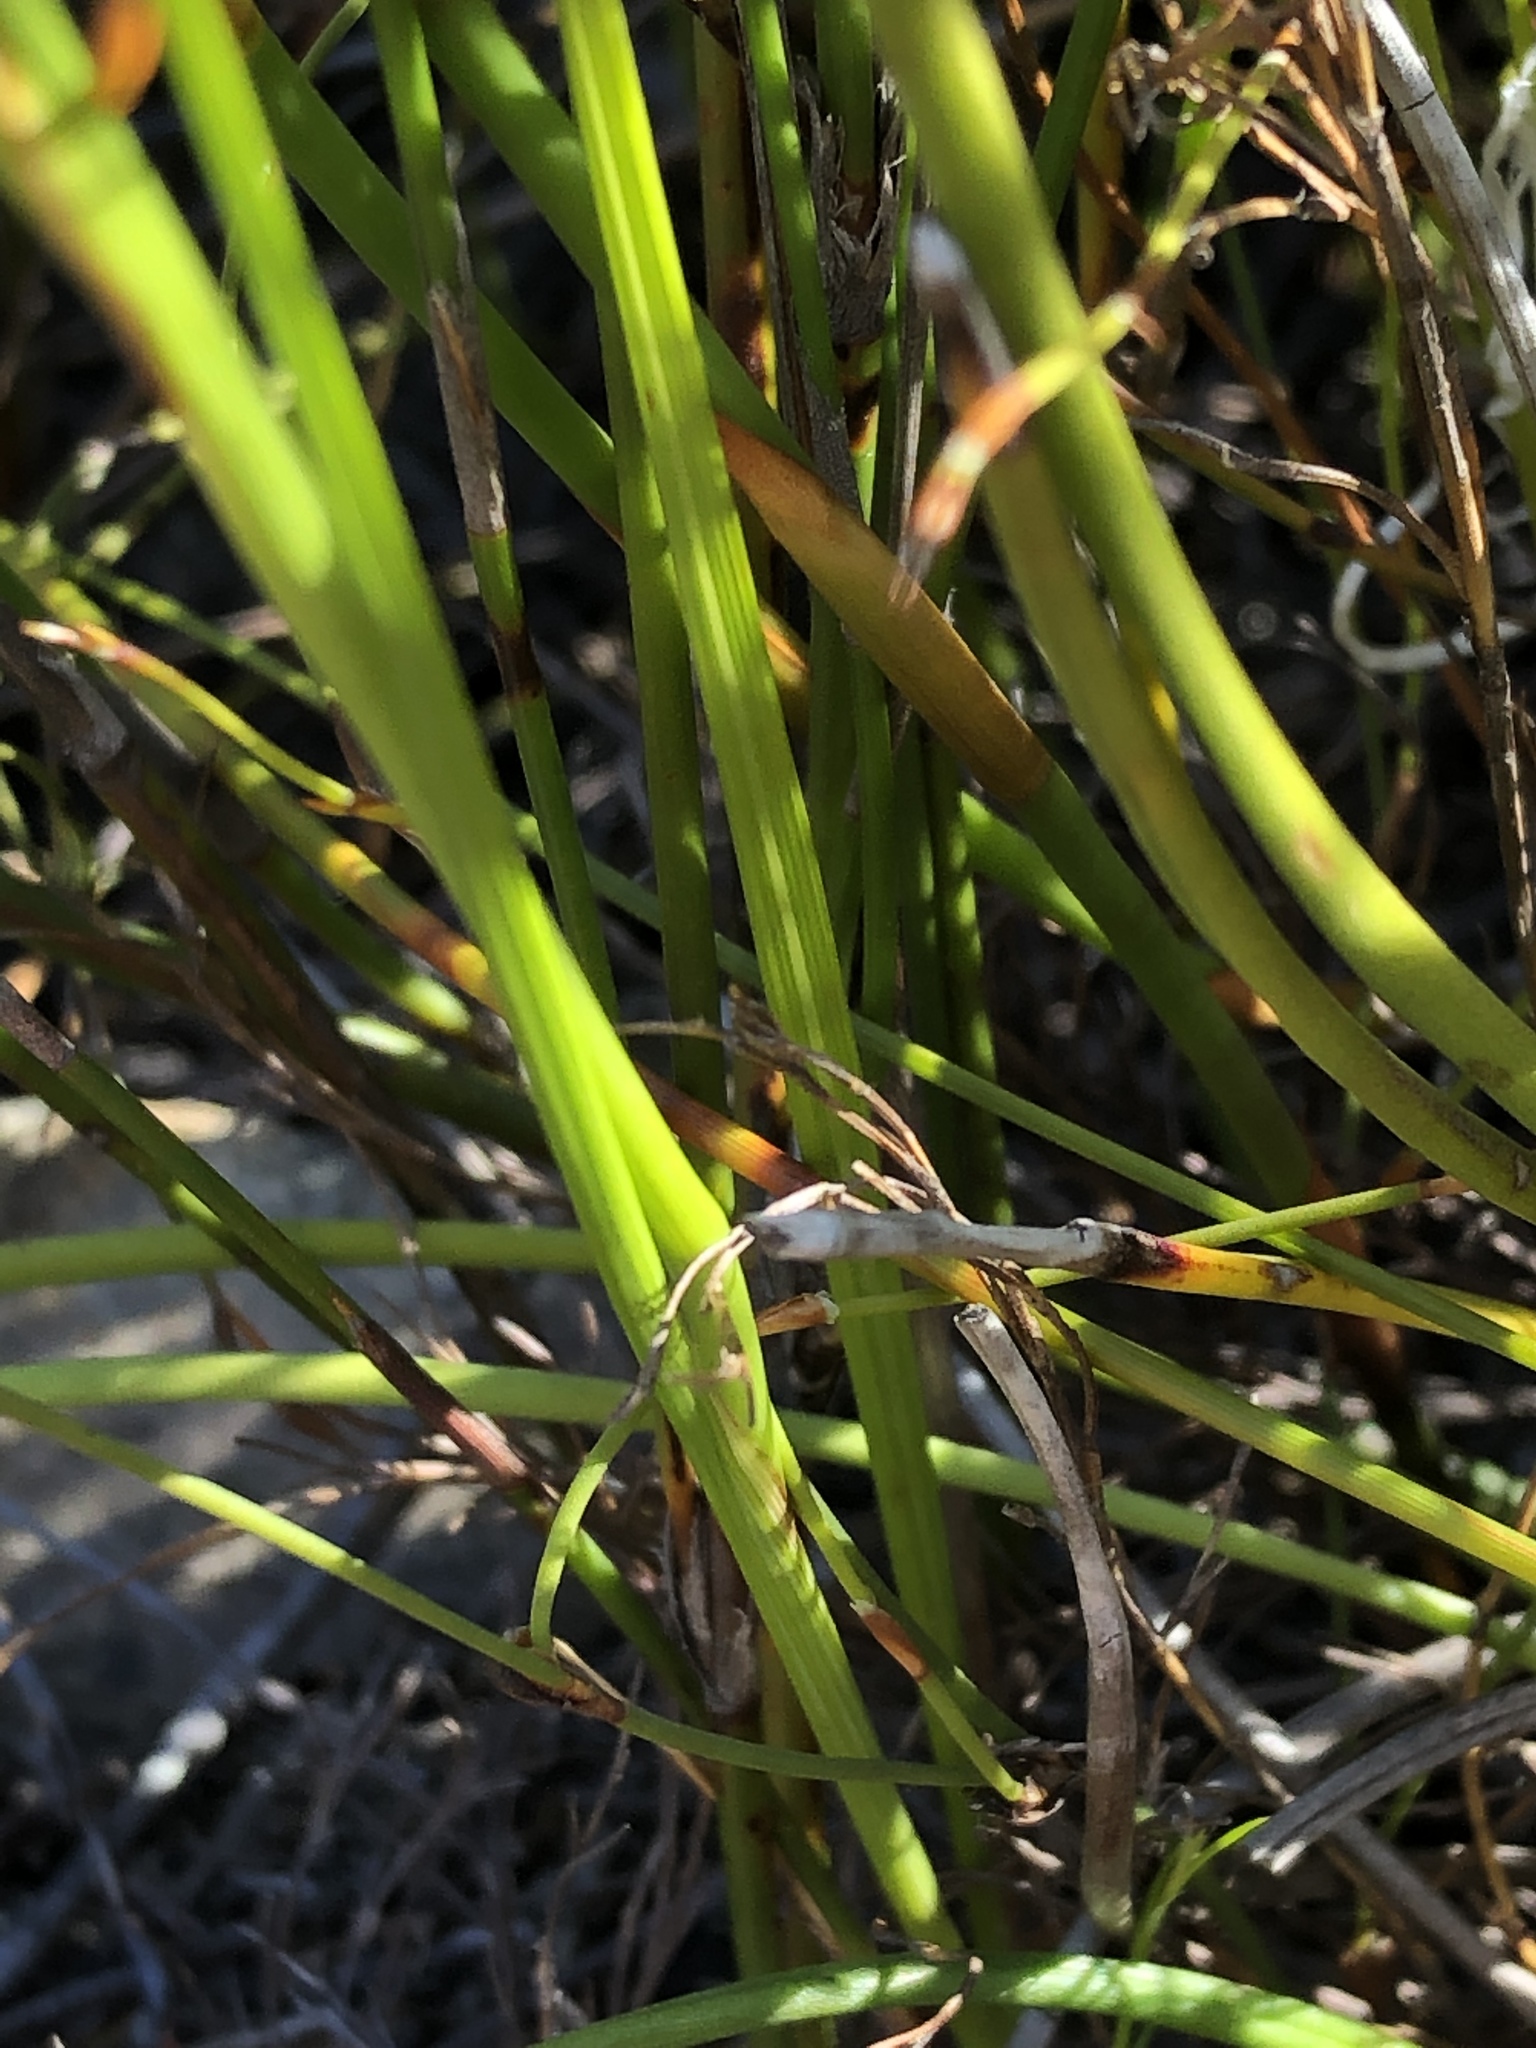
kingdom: Plantae
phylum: Tracheophyta
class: Liliopsida
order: Asparagales
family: Iridaceae
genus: Thereianthus
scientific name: Thereianthus ixioides
